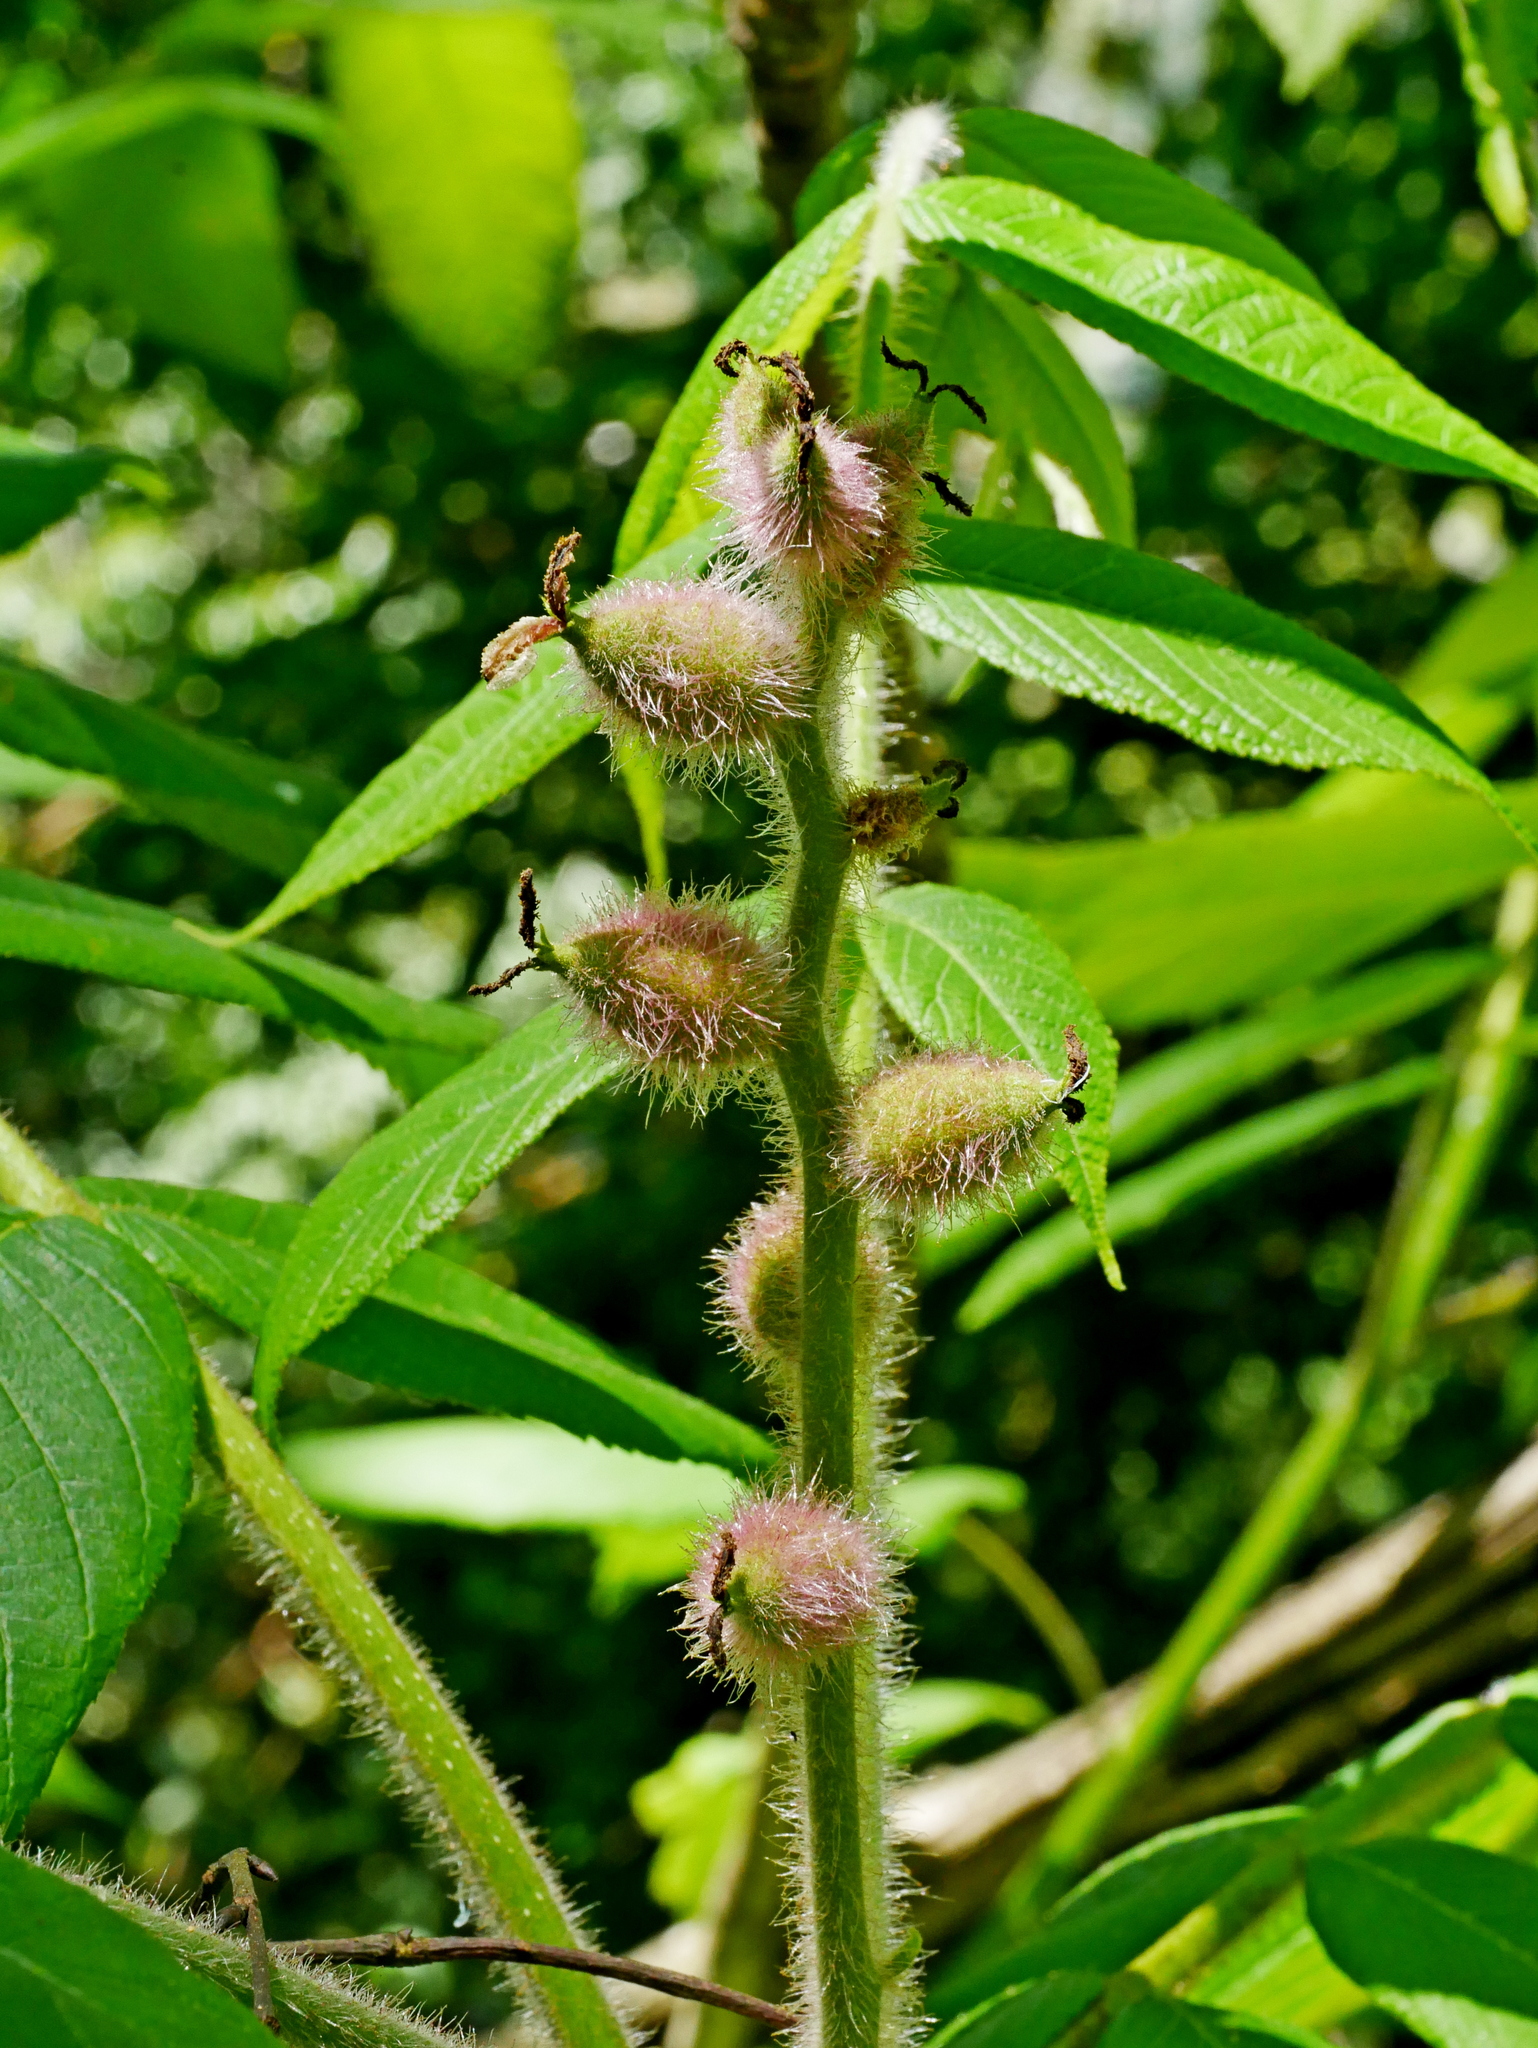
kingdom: Plantae
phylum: Tracheophyta
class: Magnoliopsida
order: Fagales
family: Juglandaceae
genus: Juglans
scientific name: Juglans mandshurica
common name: Manchurian walnut
